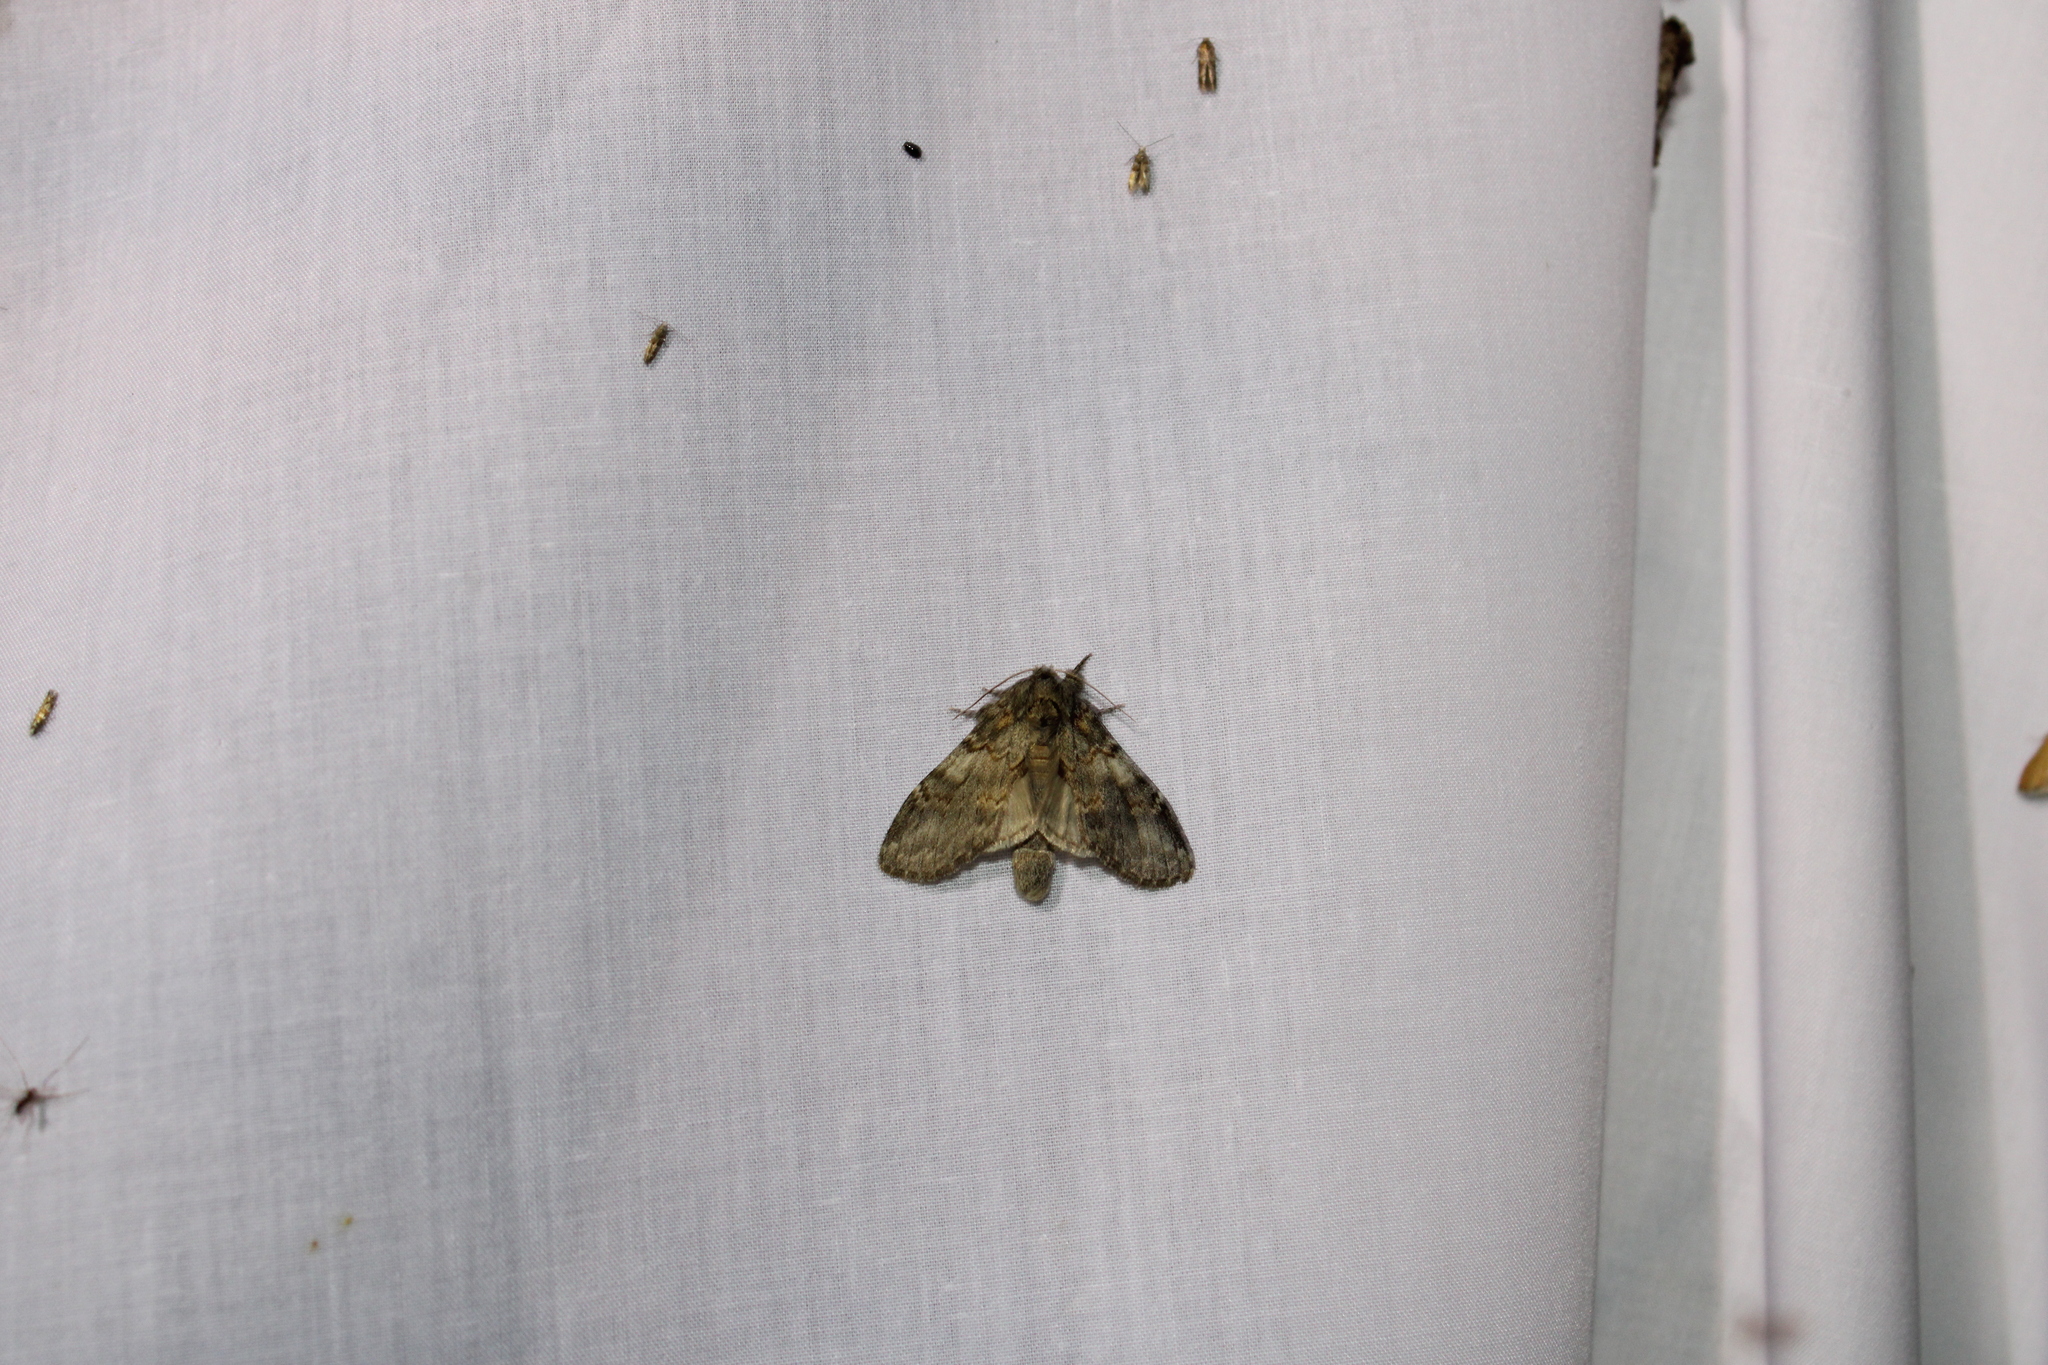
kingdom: Animalia
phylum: Arthropoda
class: Insecta
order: Lepidoptera
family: Notodontidae
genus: Peridea
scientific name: Peridea angulosa
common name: Angulose prominent
